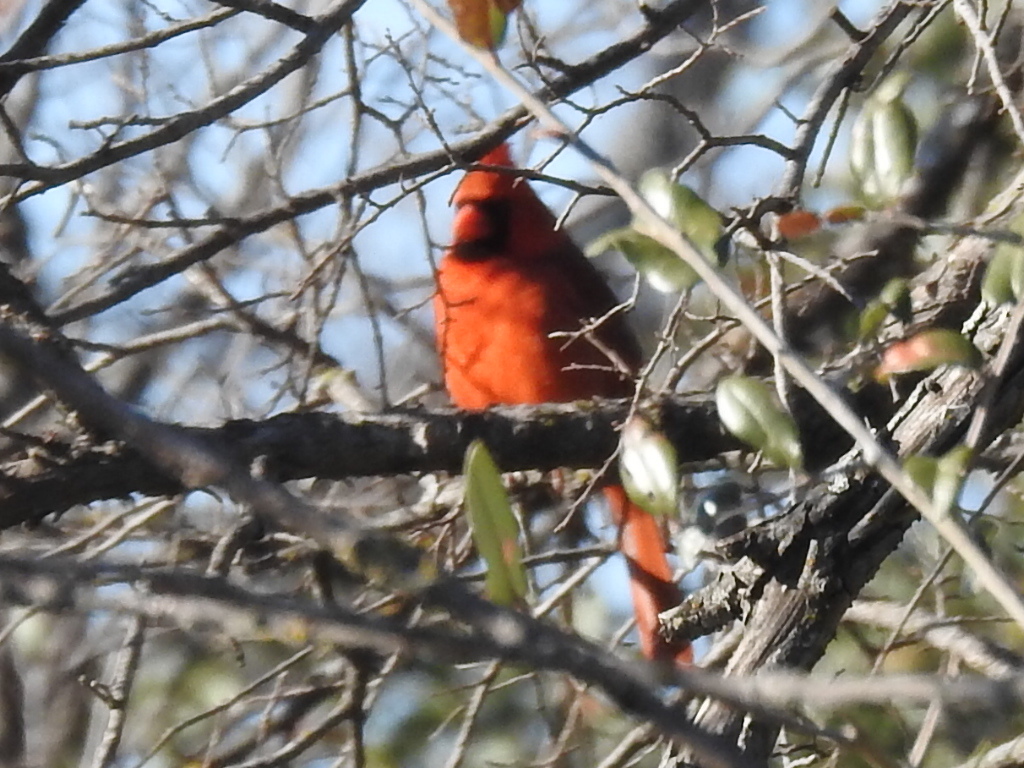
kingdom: Animalia
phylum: Chordata
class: Aves
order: Passeriformes
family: Cardinalidae
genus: Cardinalis
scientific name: Cardinalis cardinalis
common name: Northern cardinal
